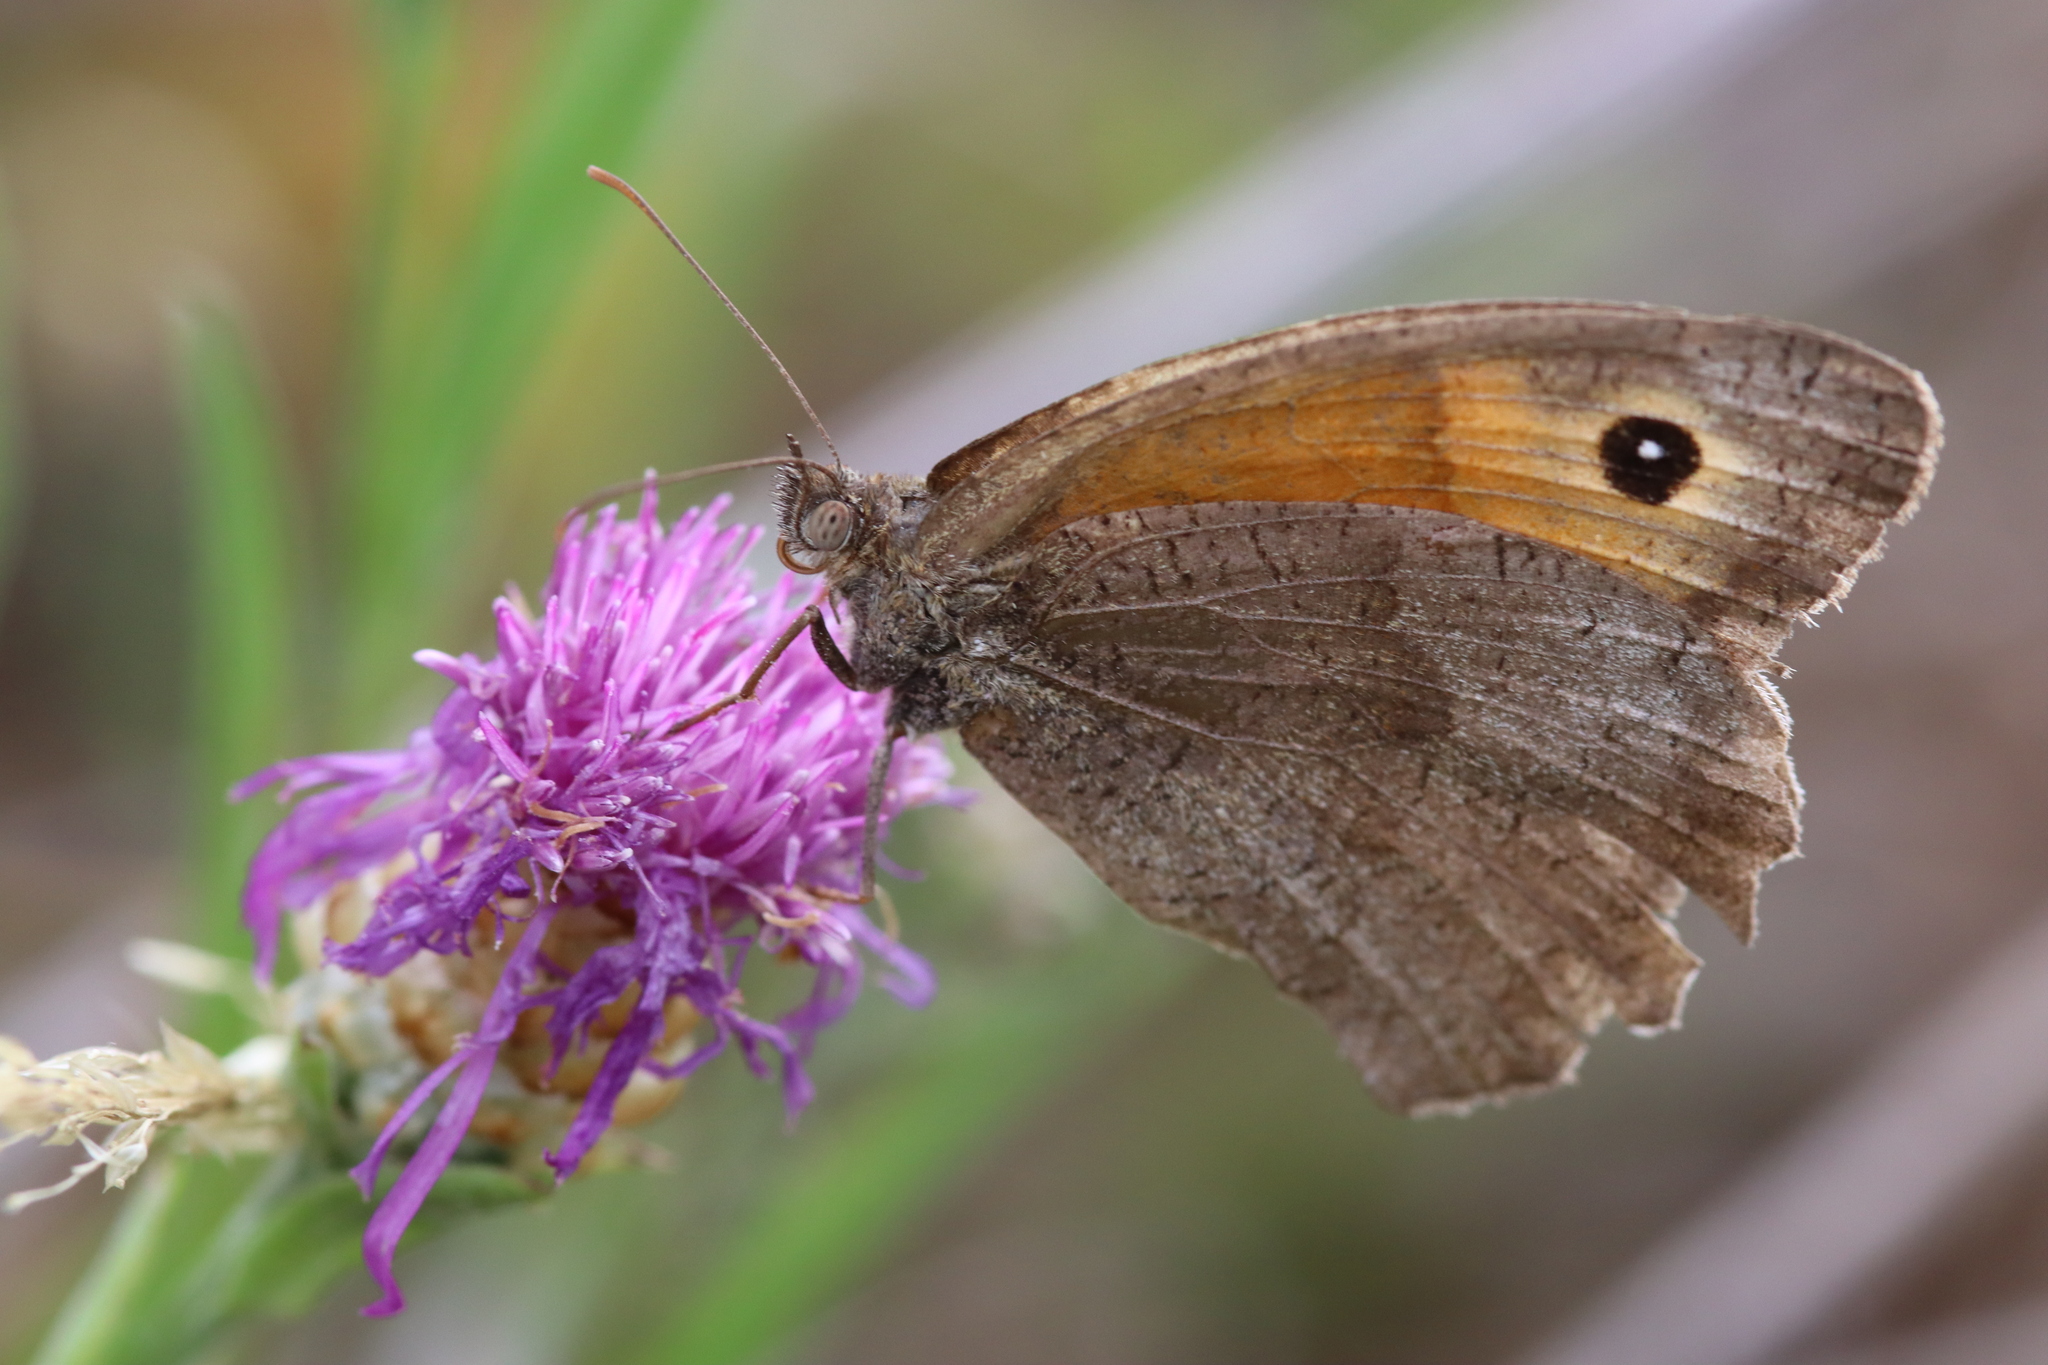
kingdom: Animalia
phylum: Arthropoda
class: Insecta
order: Lepidoptera
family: Nymphalidae
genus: Maniola
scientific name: Maniola jurtina
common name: Meadow brown
